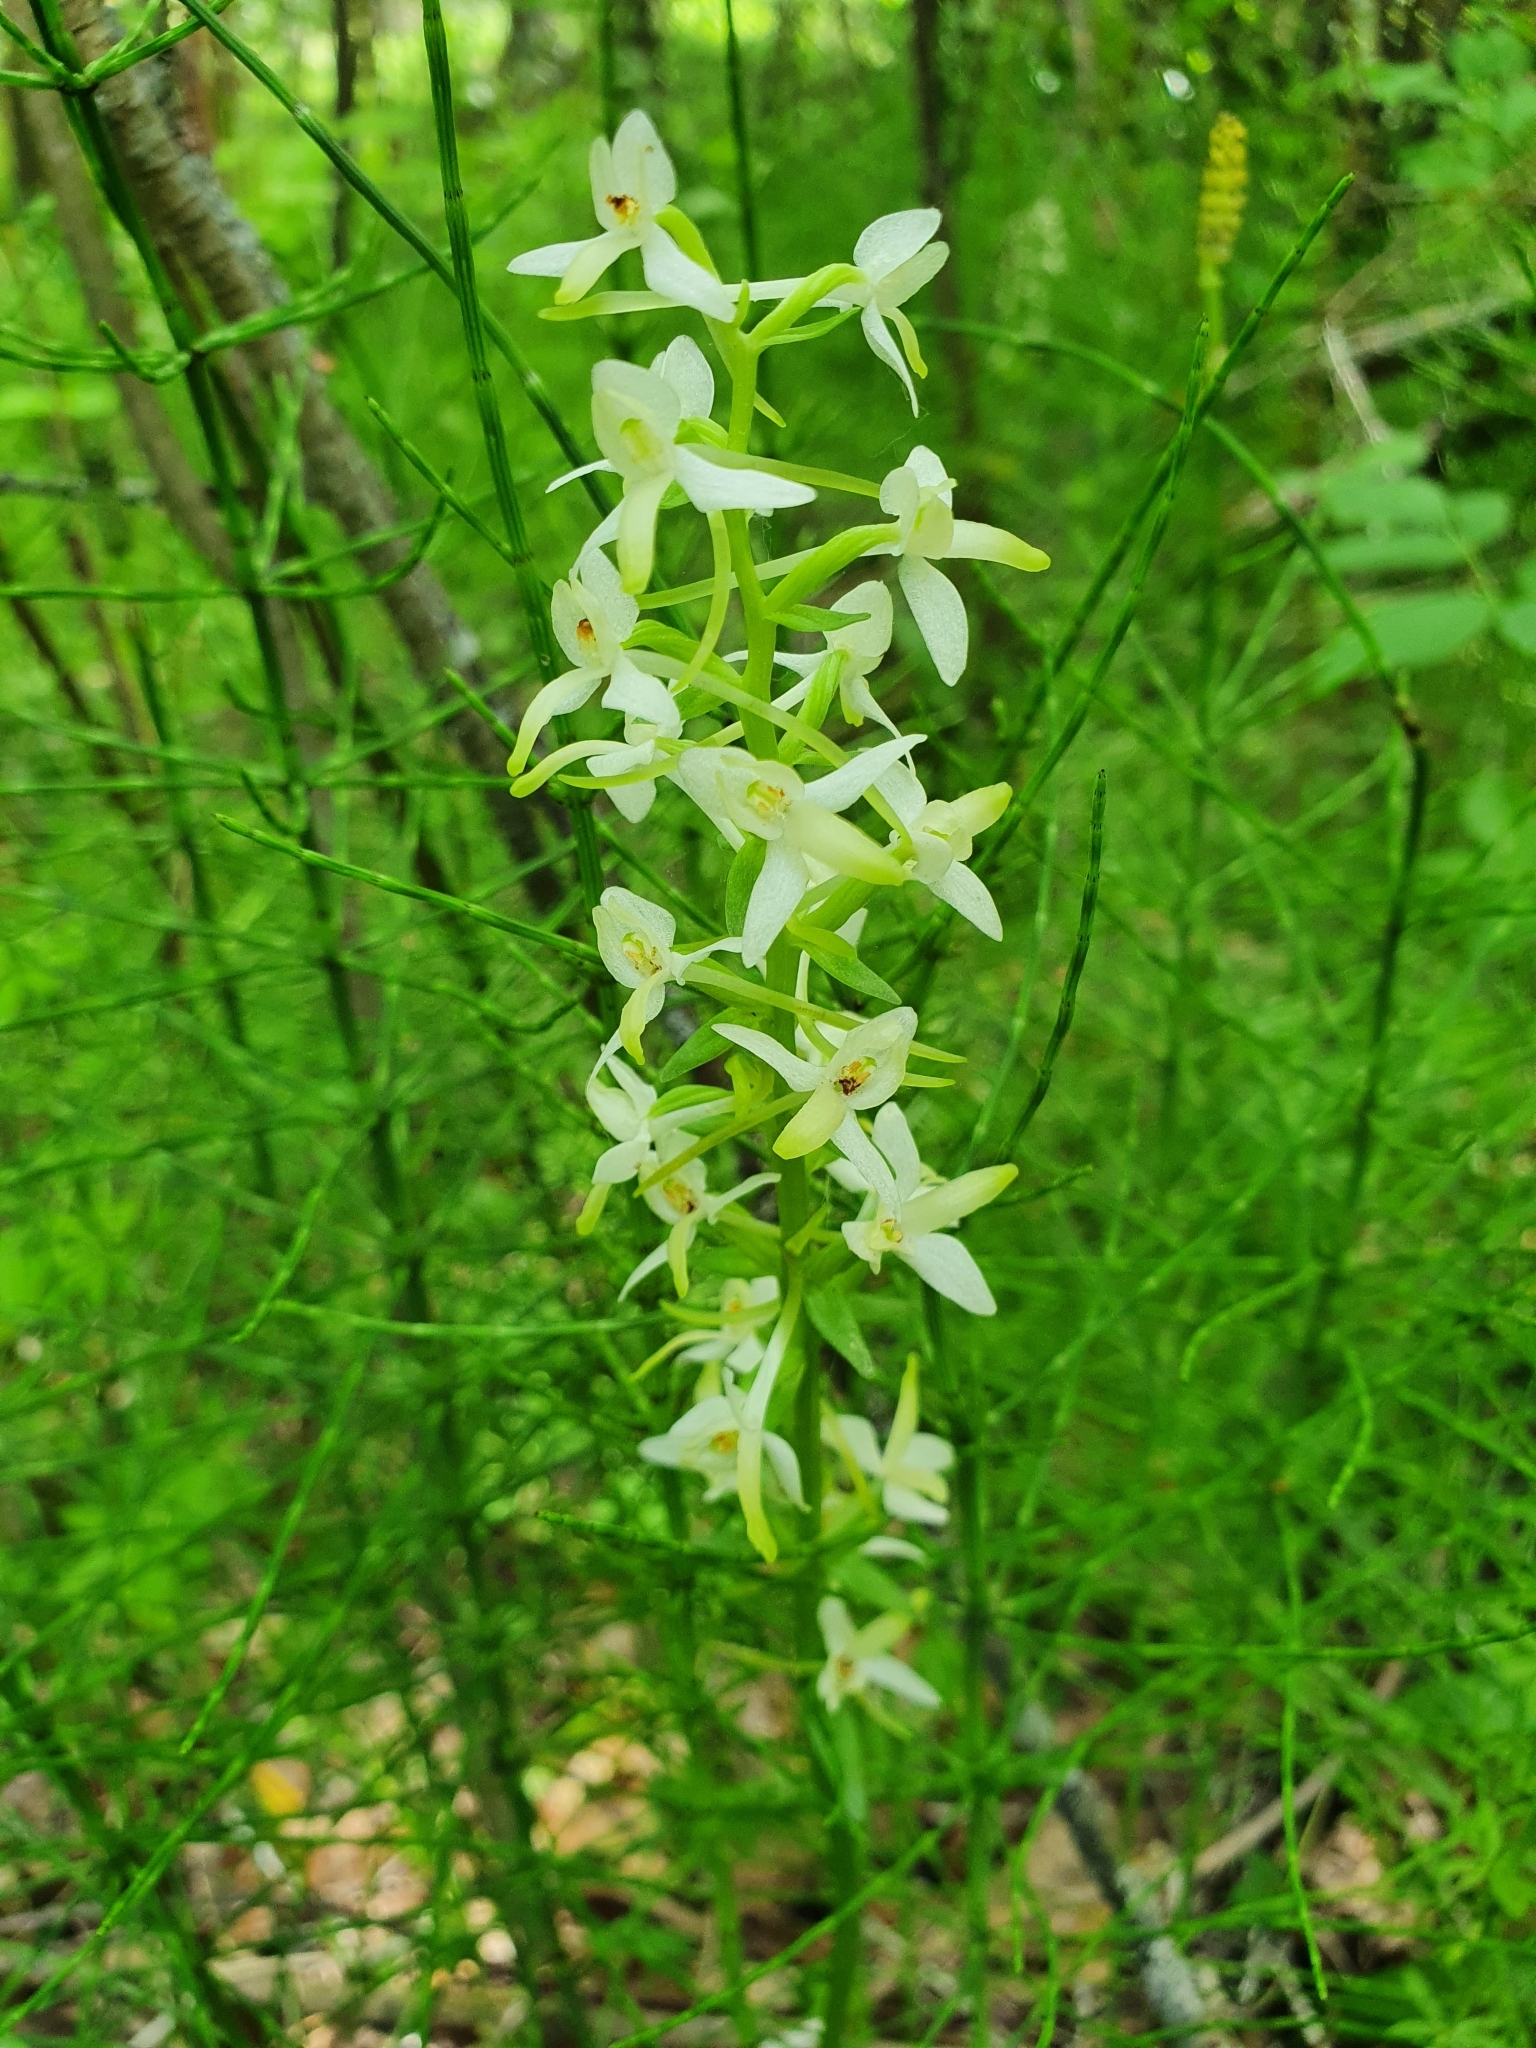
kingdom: Plantae
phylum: Tracheophyta
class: Liliopsida
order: Asparagales
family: Orchidaceae
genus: Platanthera
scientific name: Platanthera bifolia
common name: Lesser butterfly-orchid
